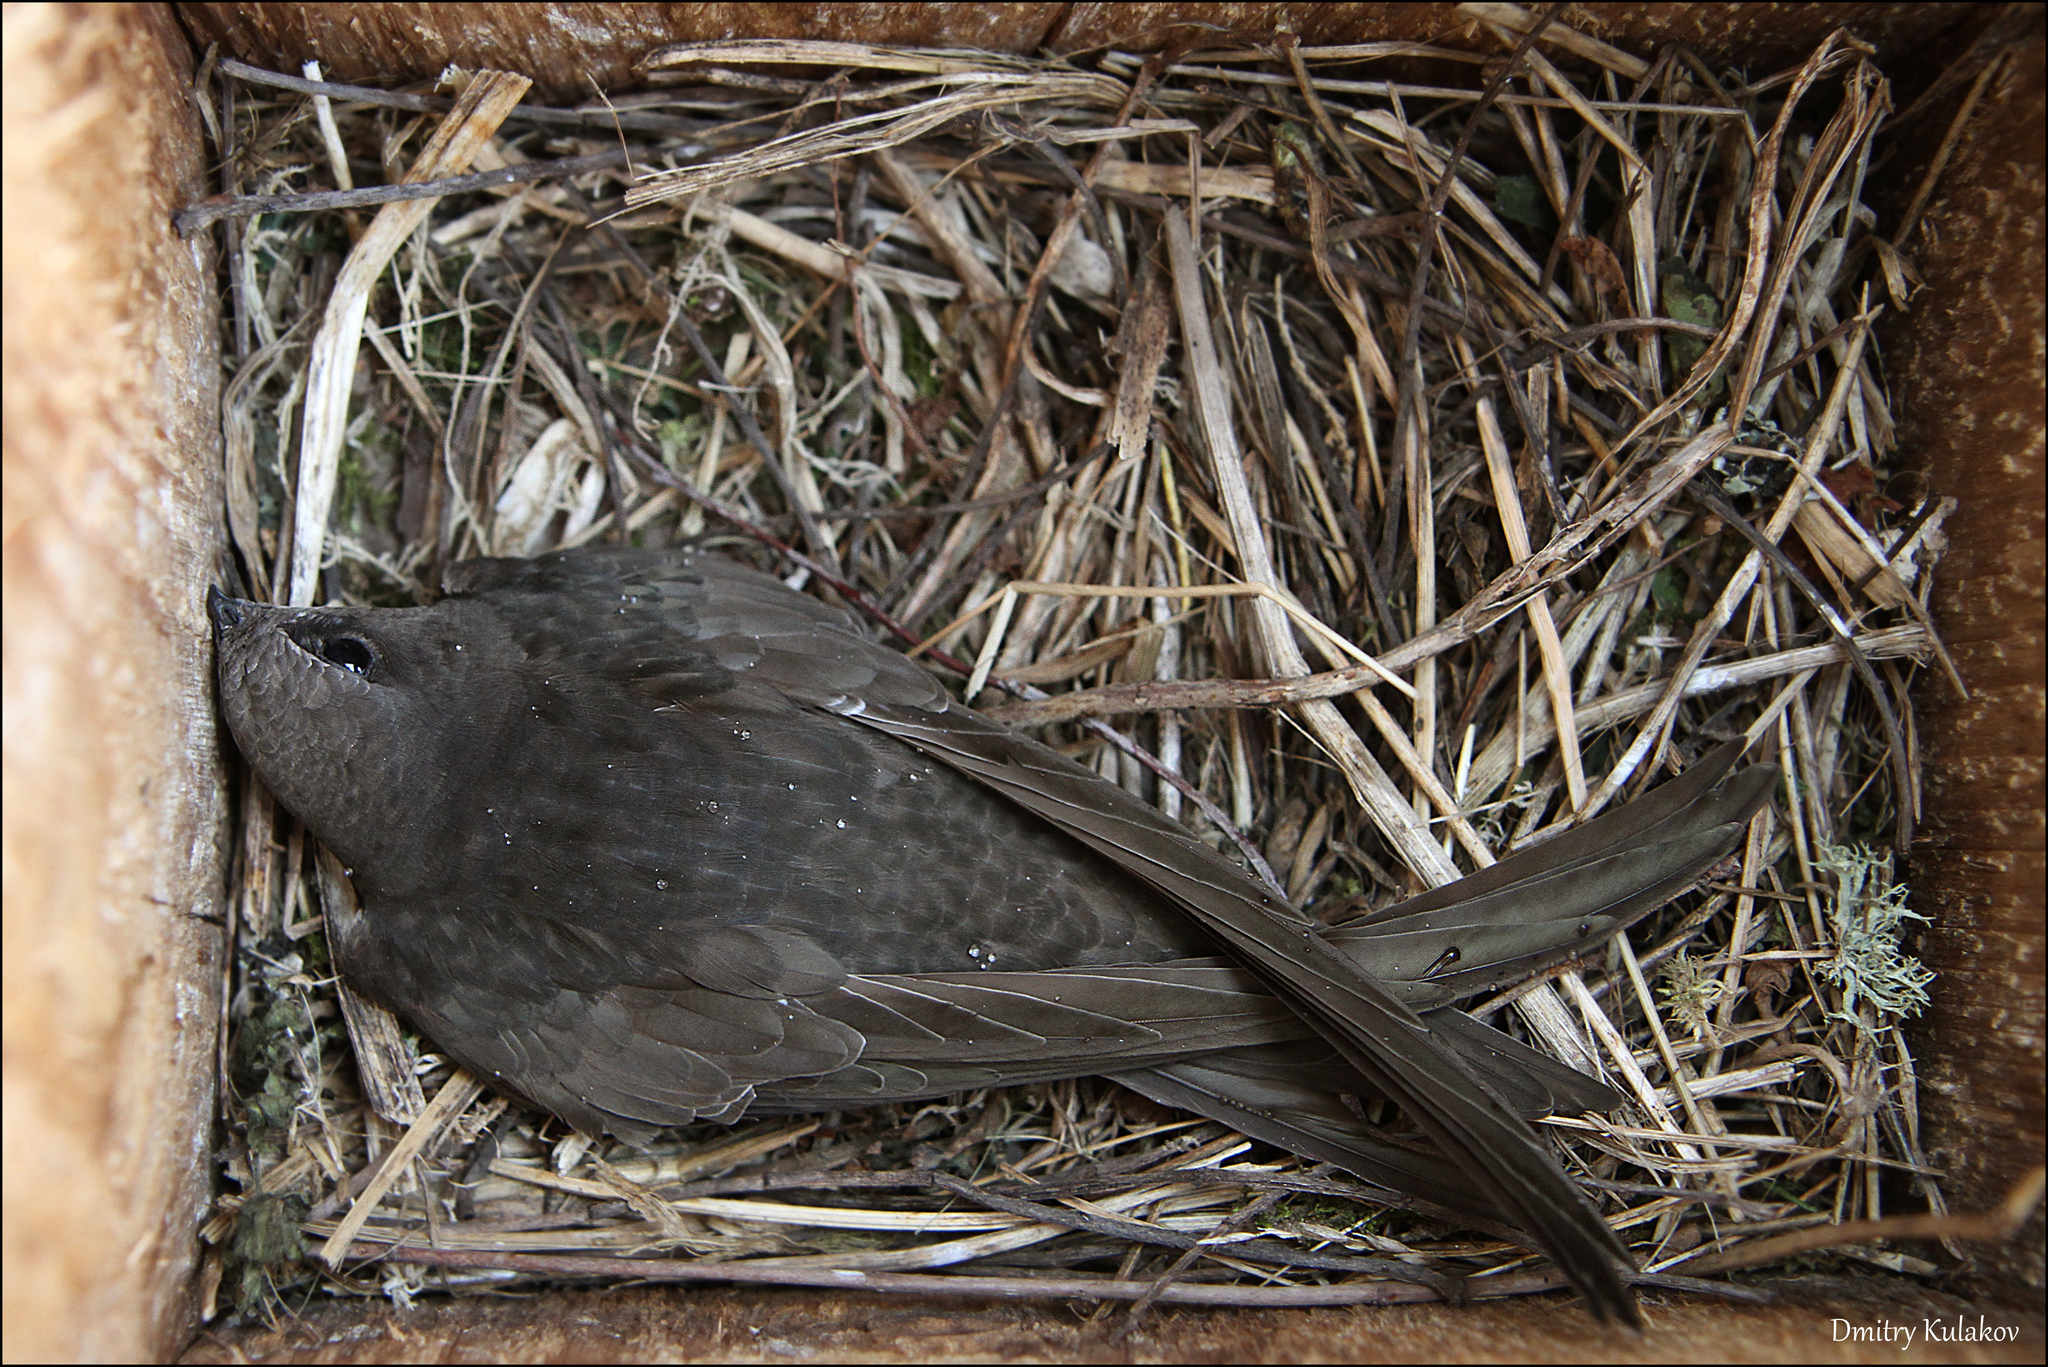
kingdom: Animalia
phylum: Chordata
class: Aves
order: Apodiformes
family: Apodidae
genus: Apus
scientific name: Apus apus
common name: Common swift
